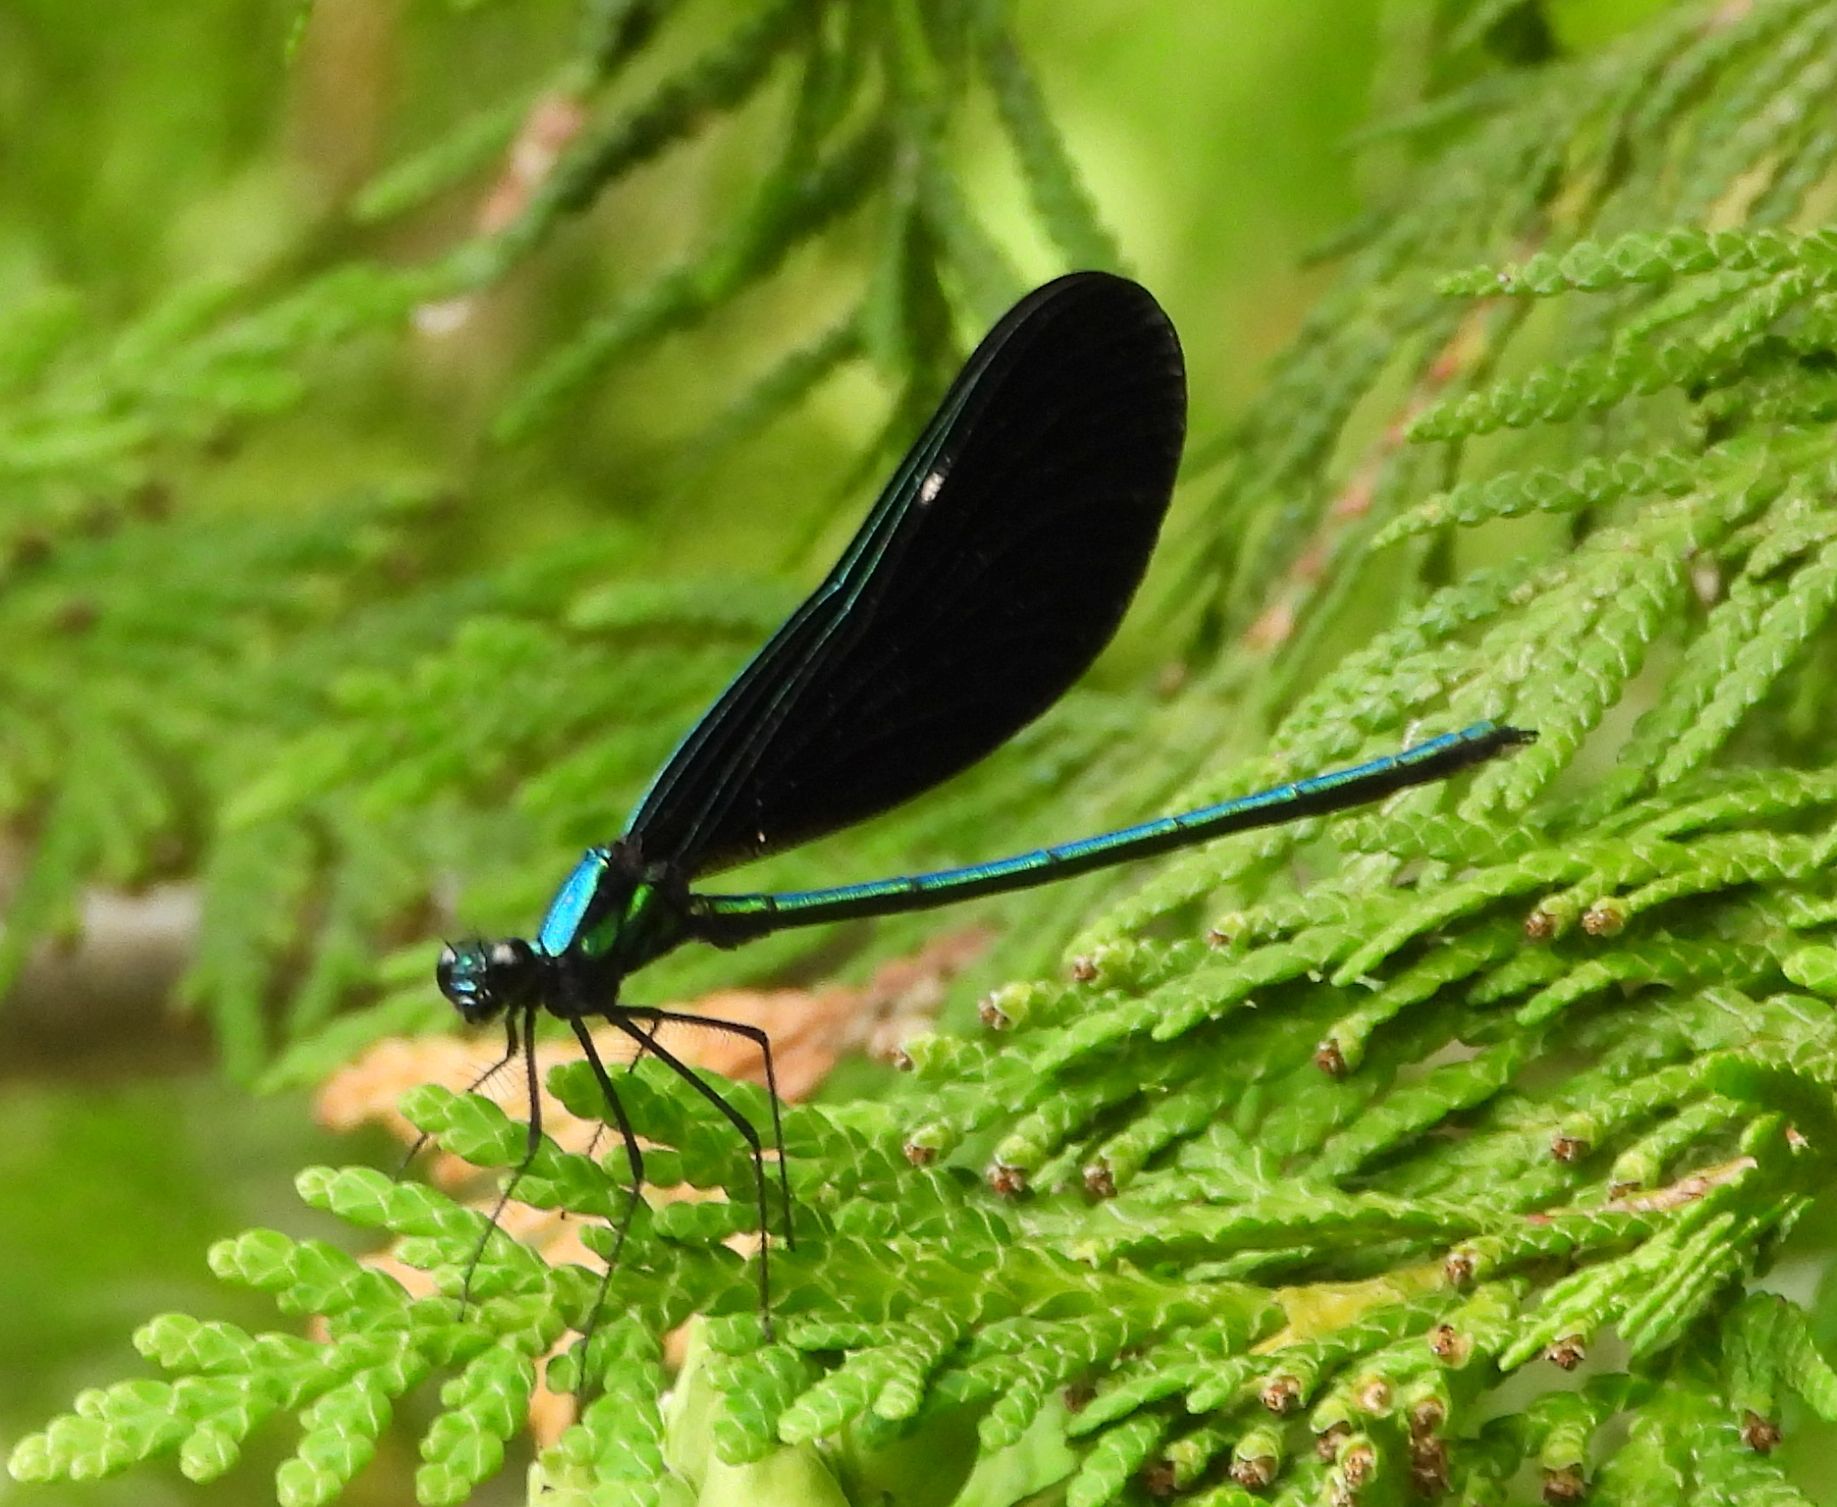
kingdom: Animalia
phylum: Arthropoda
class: Insecta
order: Odonata
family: Calopterygidae
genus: Calopteryx
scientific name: Calopteryx maculata
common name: Ebony jewelwing
